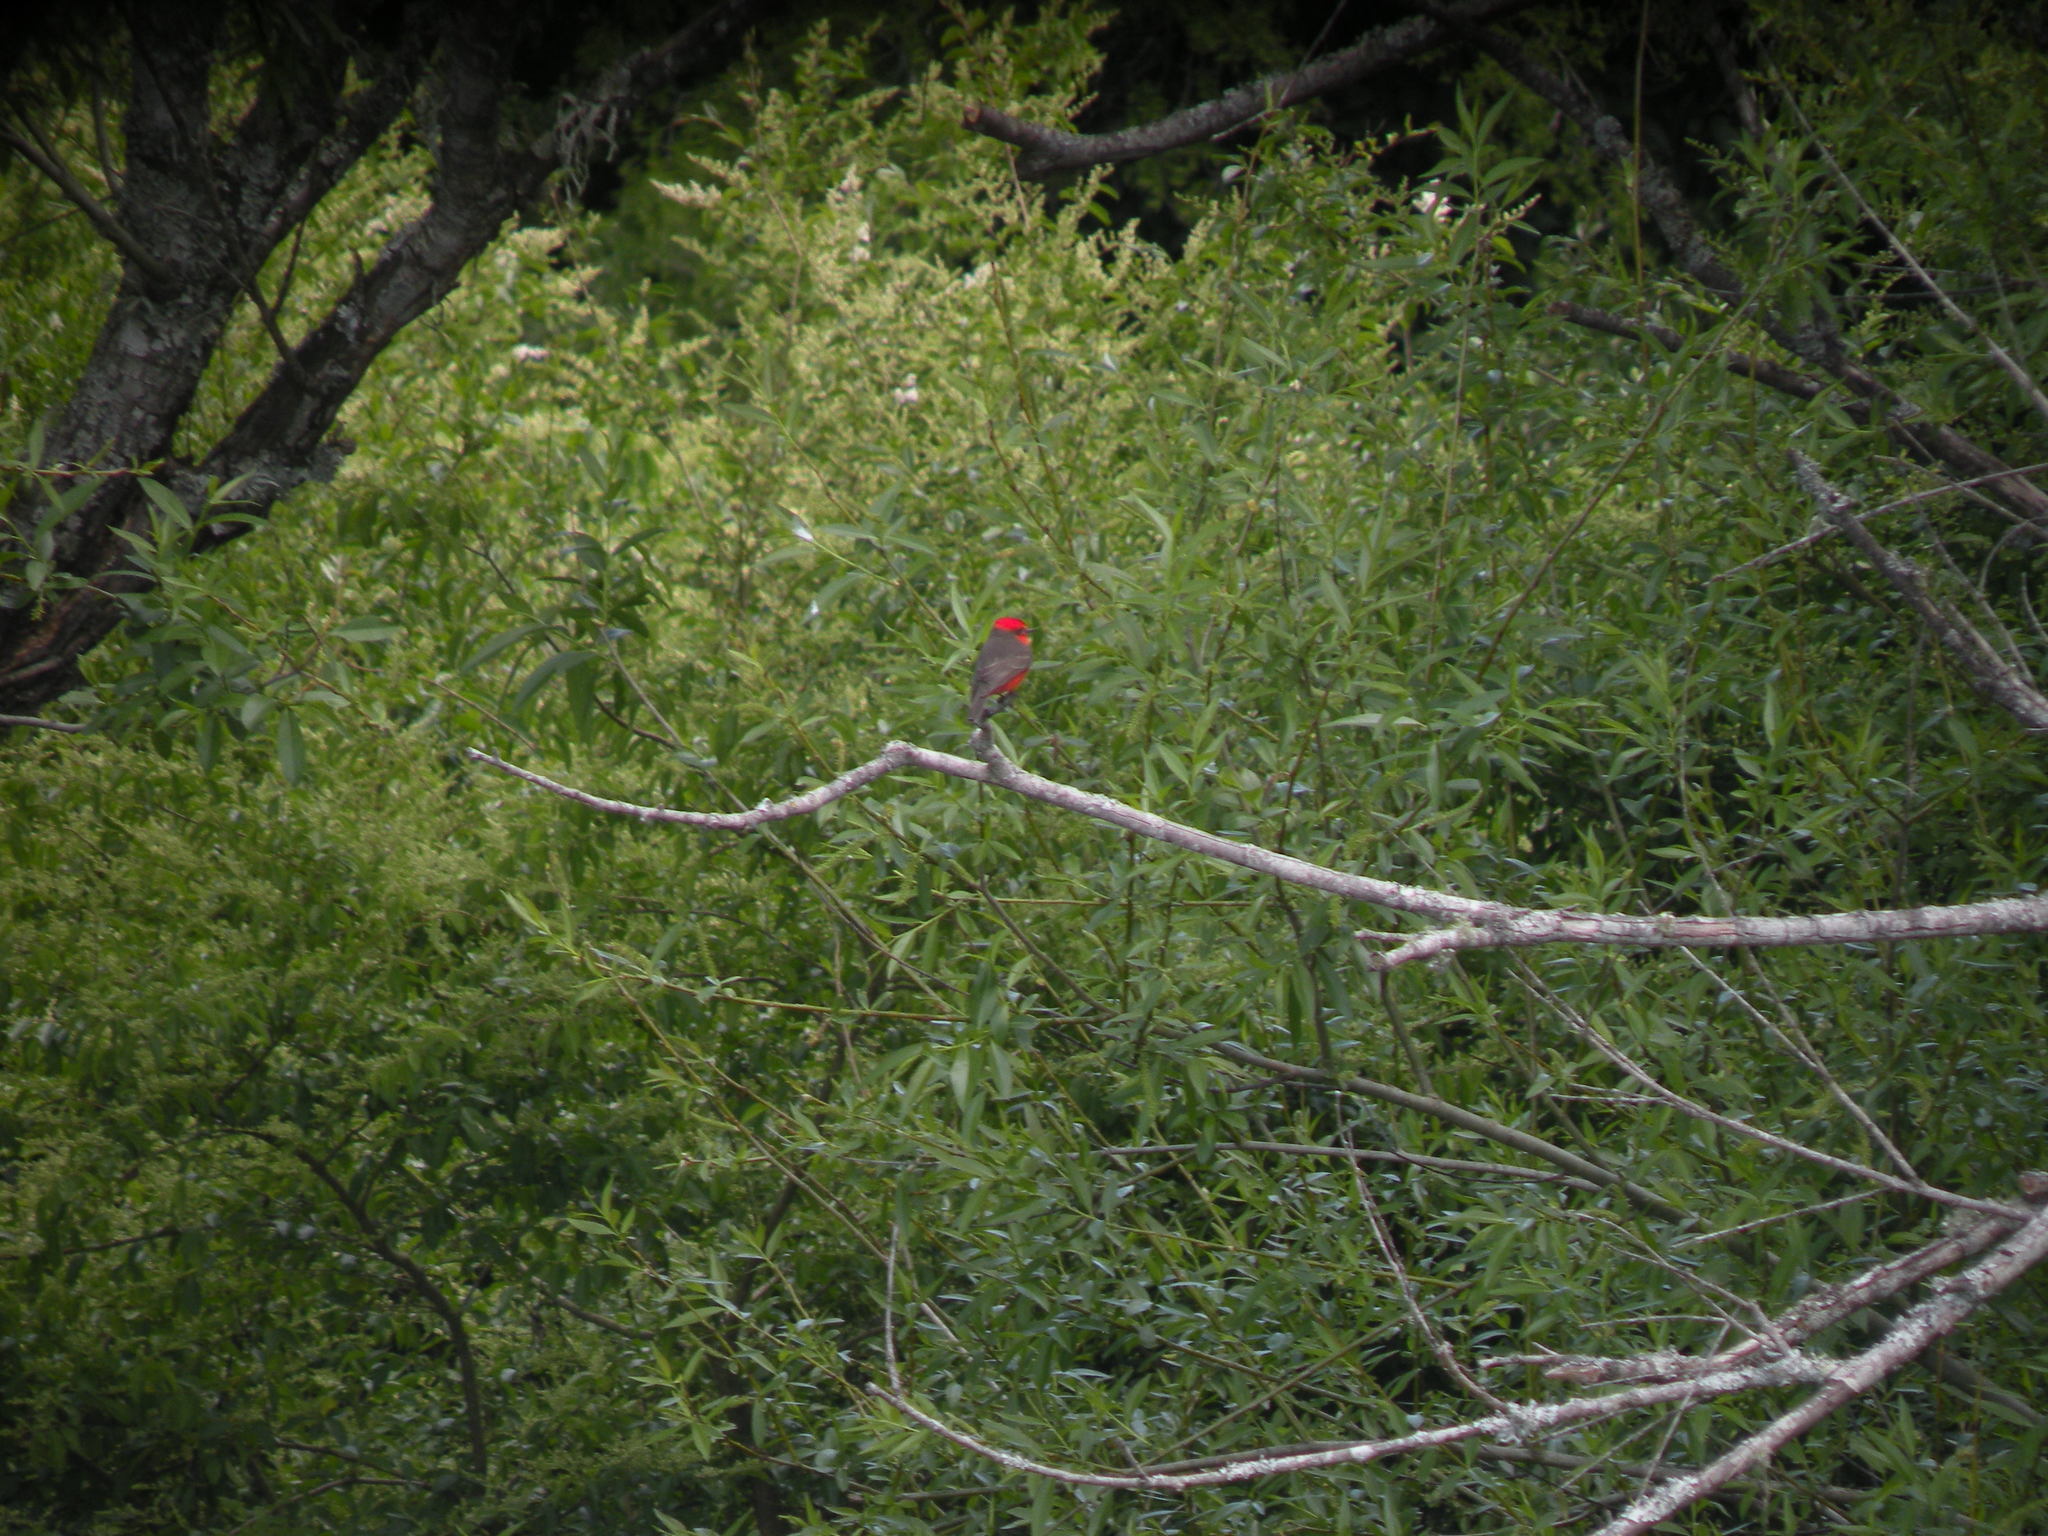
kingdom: Animalia
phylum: Chordata
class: Aves
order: Passeriformes
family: Tyrannidae
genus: Pyrocephalus
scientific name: Pyrocephalus rubinus
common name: Vermilion flycatcher
